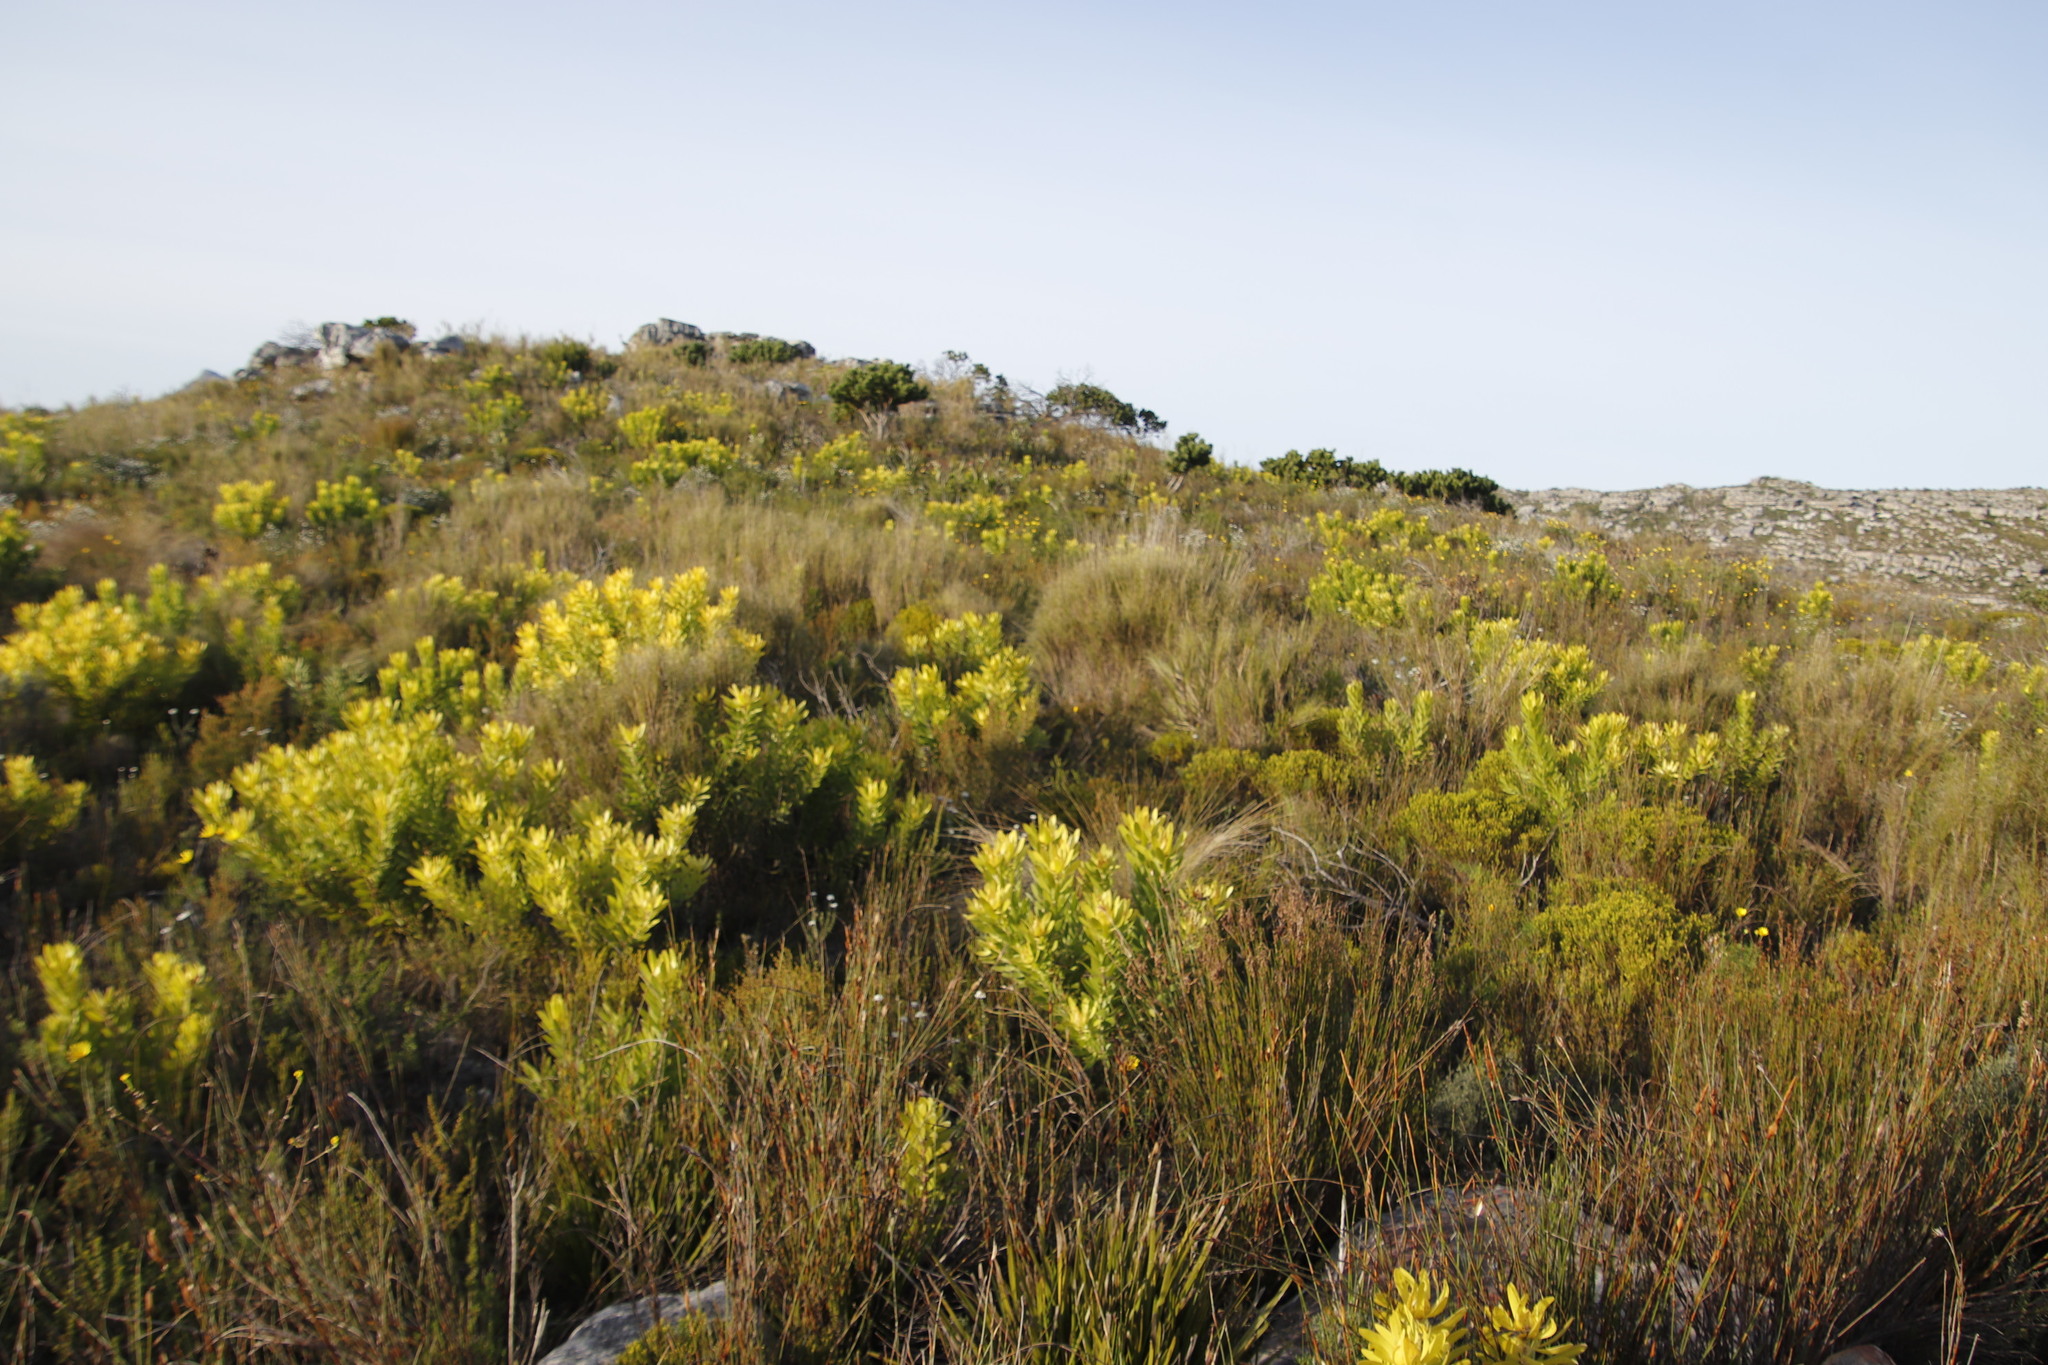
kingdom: Plantae
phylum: Tracheophyta
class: Magnoliopsida
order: Proteales
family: Proteaceae
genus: Leucospermum
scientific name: Leucospermum conocarpodendron
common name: Tree pincushion
